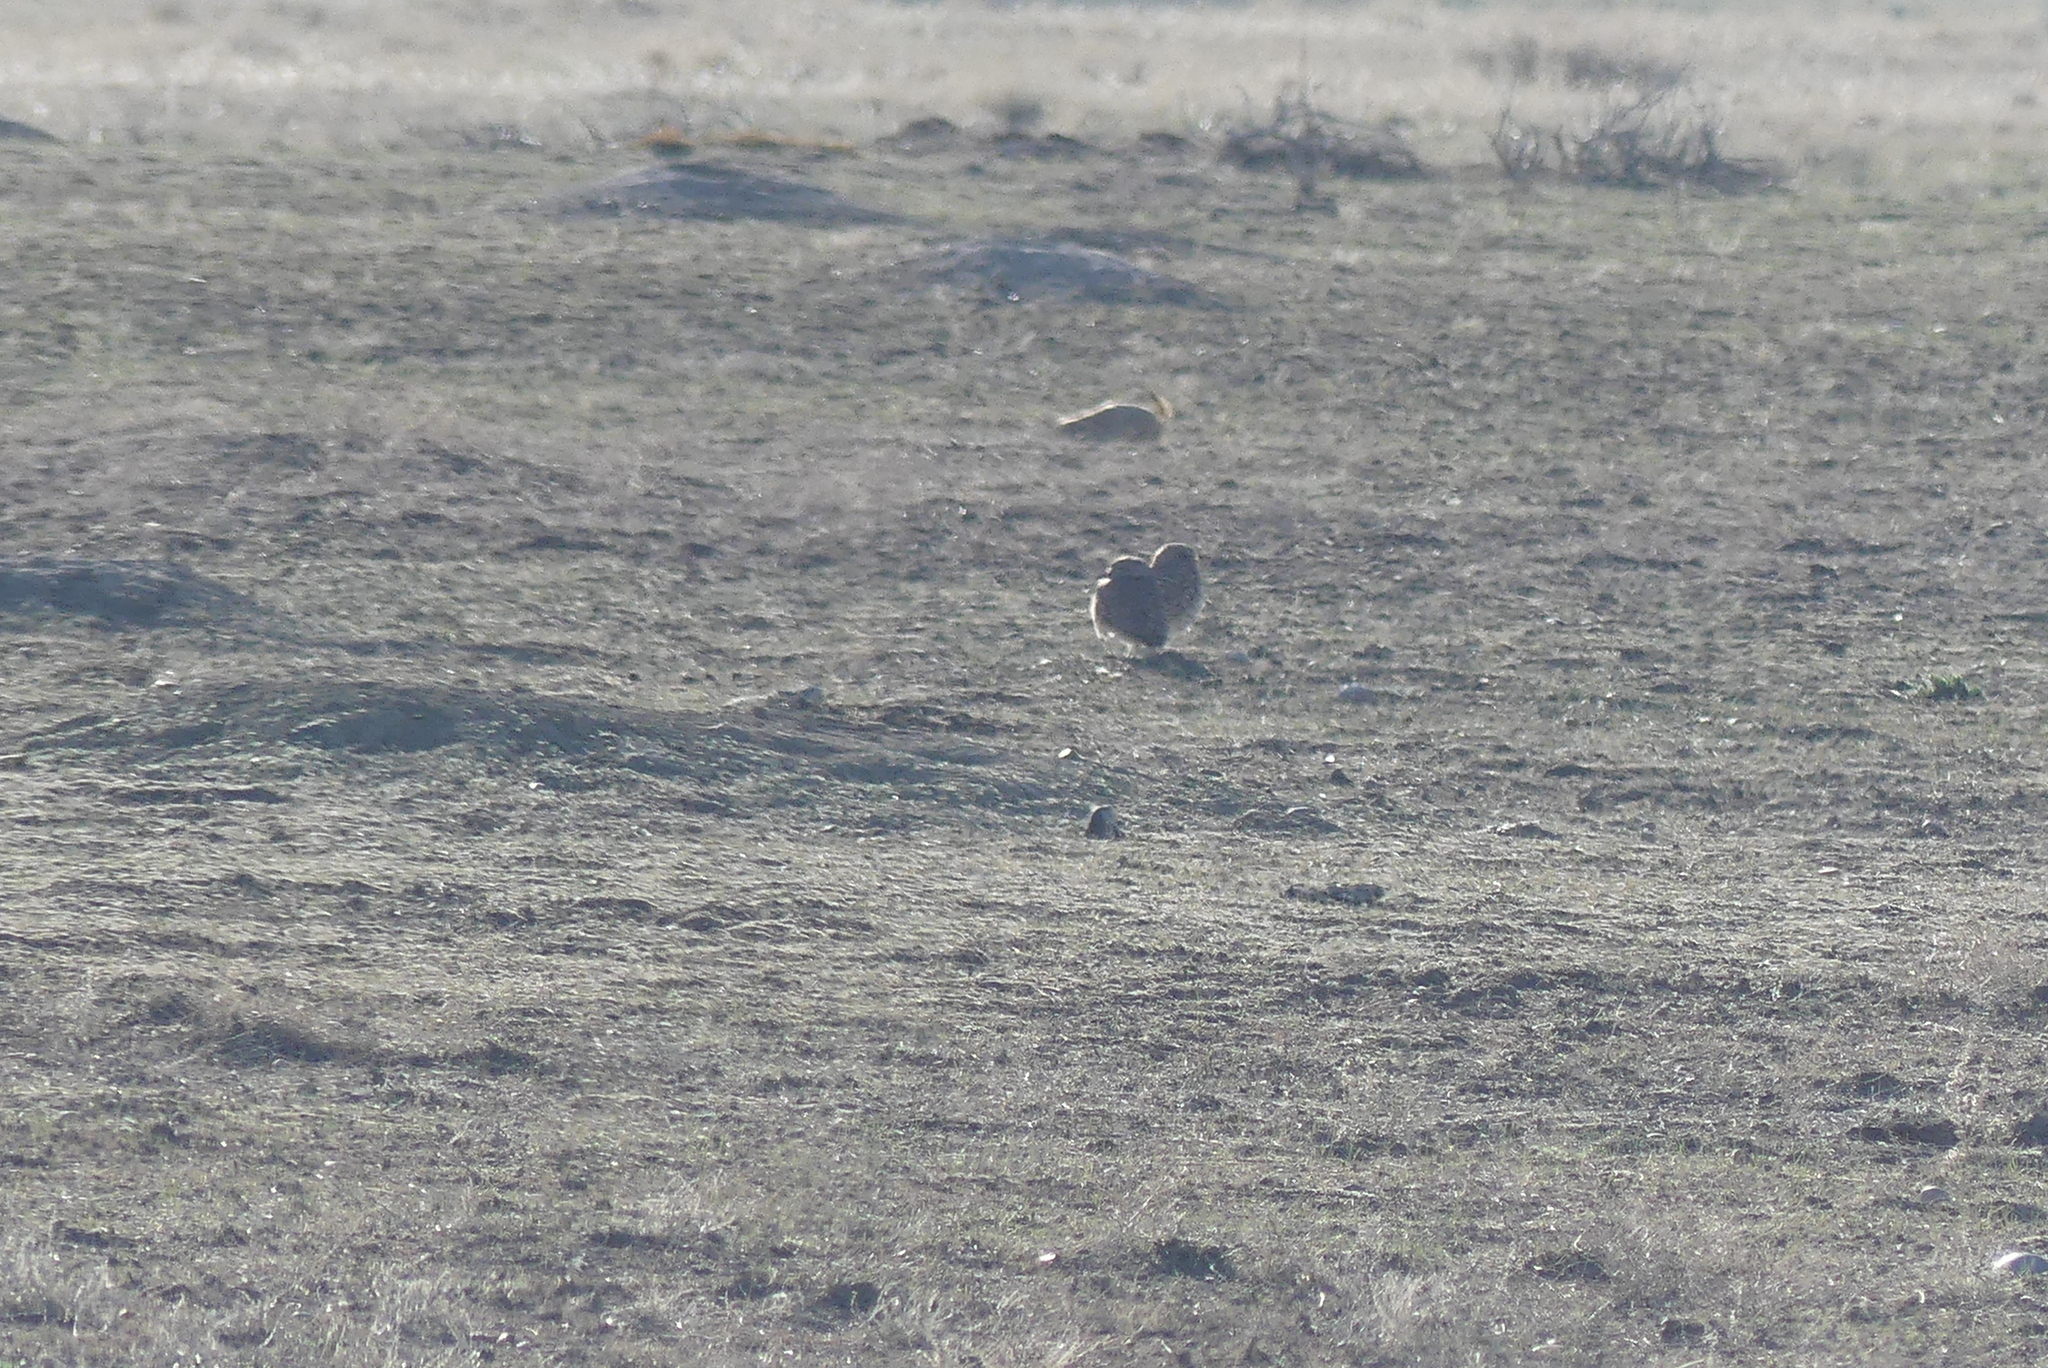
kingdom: Animalia
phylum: Chordata
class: Aves
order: Strigiformes
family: Strigidae
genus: Athene
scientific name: Athene cunicularia
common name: Burrowing owl
